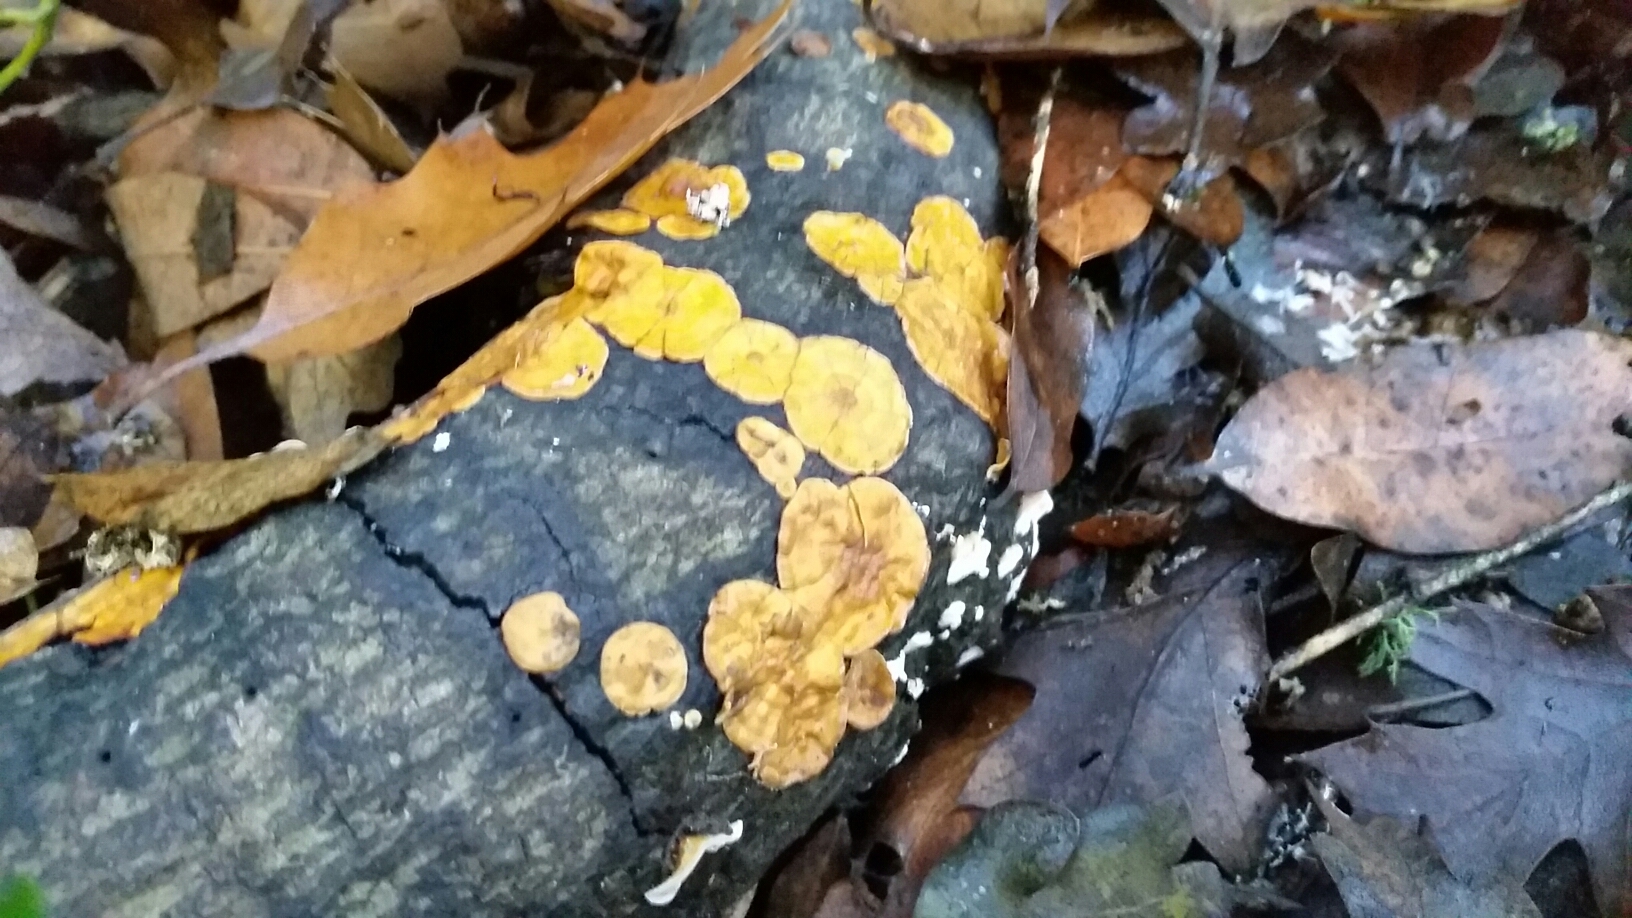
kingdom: Fungi
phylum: Basidiomycota
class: Tremellomycetes
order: Tremellales
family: Naemateliaceae
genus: Naematelia
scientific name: Naematelia aurantia
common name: Golden ear
